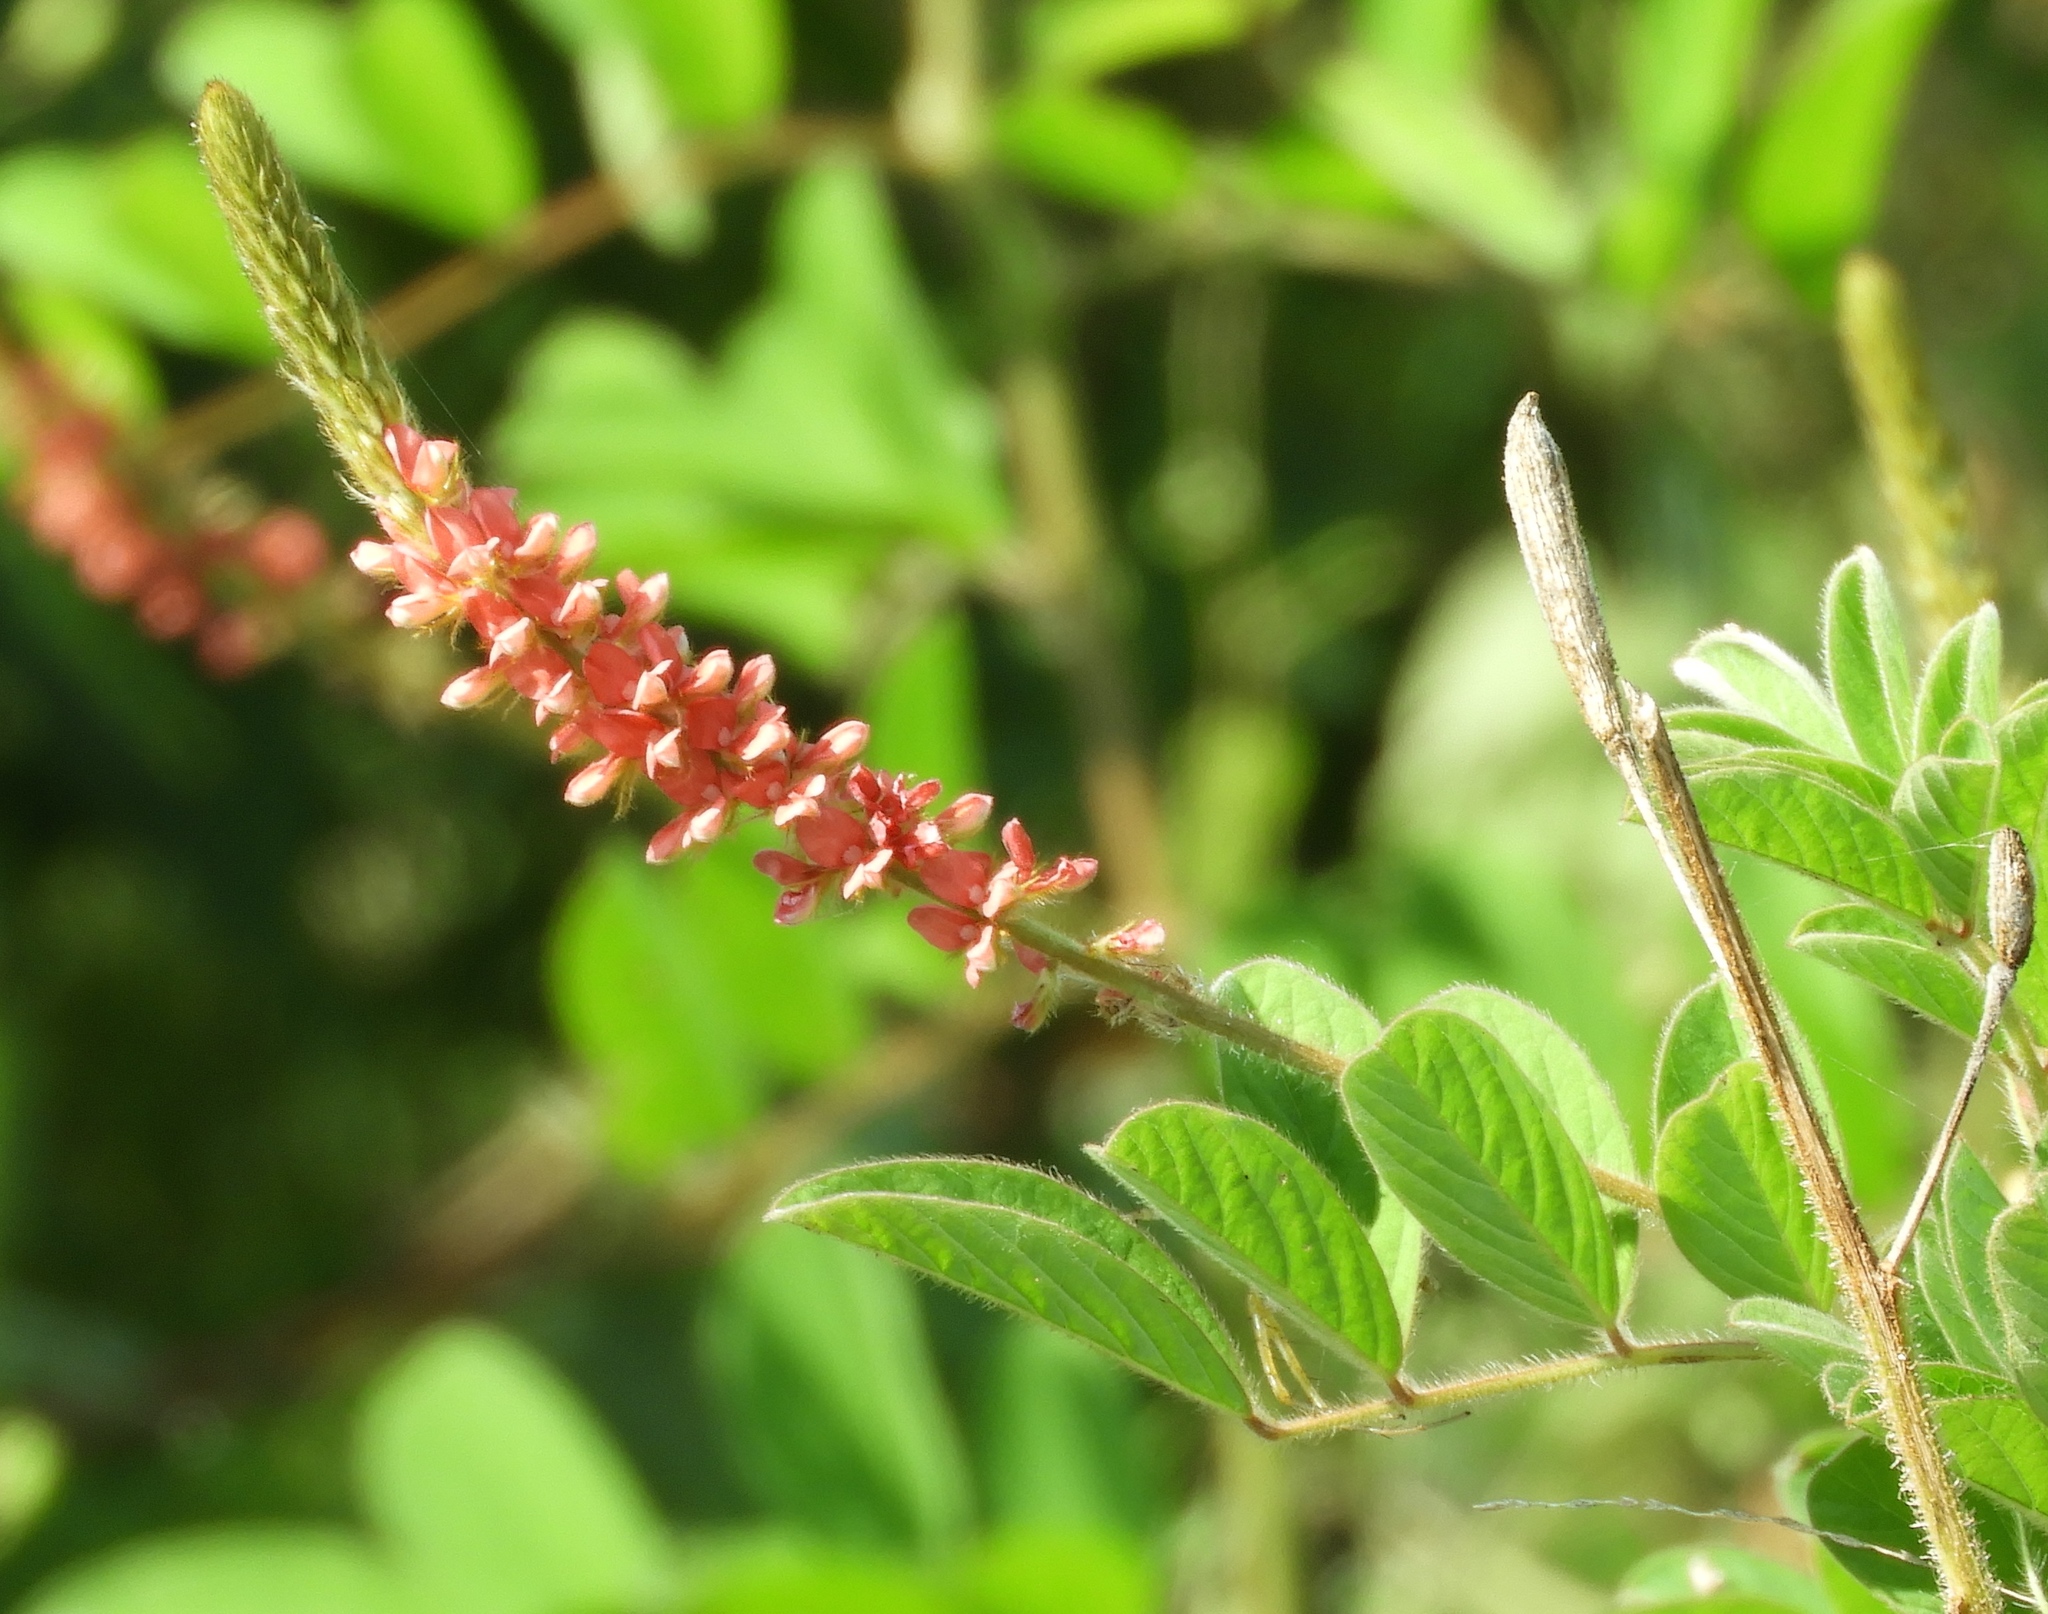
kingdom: Plantae
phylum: Tracheophyta
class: Magnoliopsida
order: Fabales
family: Fabaceae
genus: Indigofera
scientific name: Indigofera
